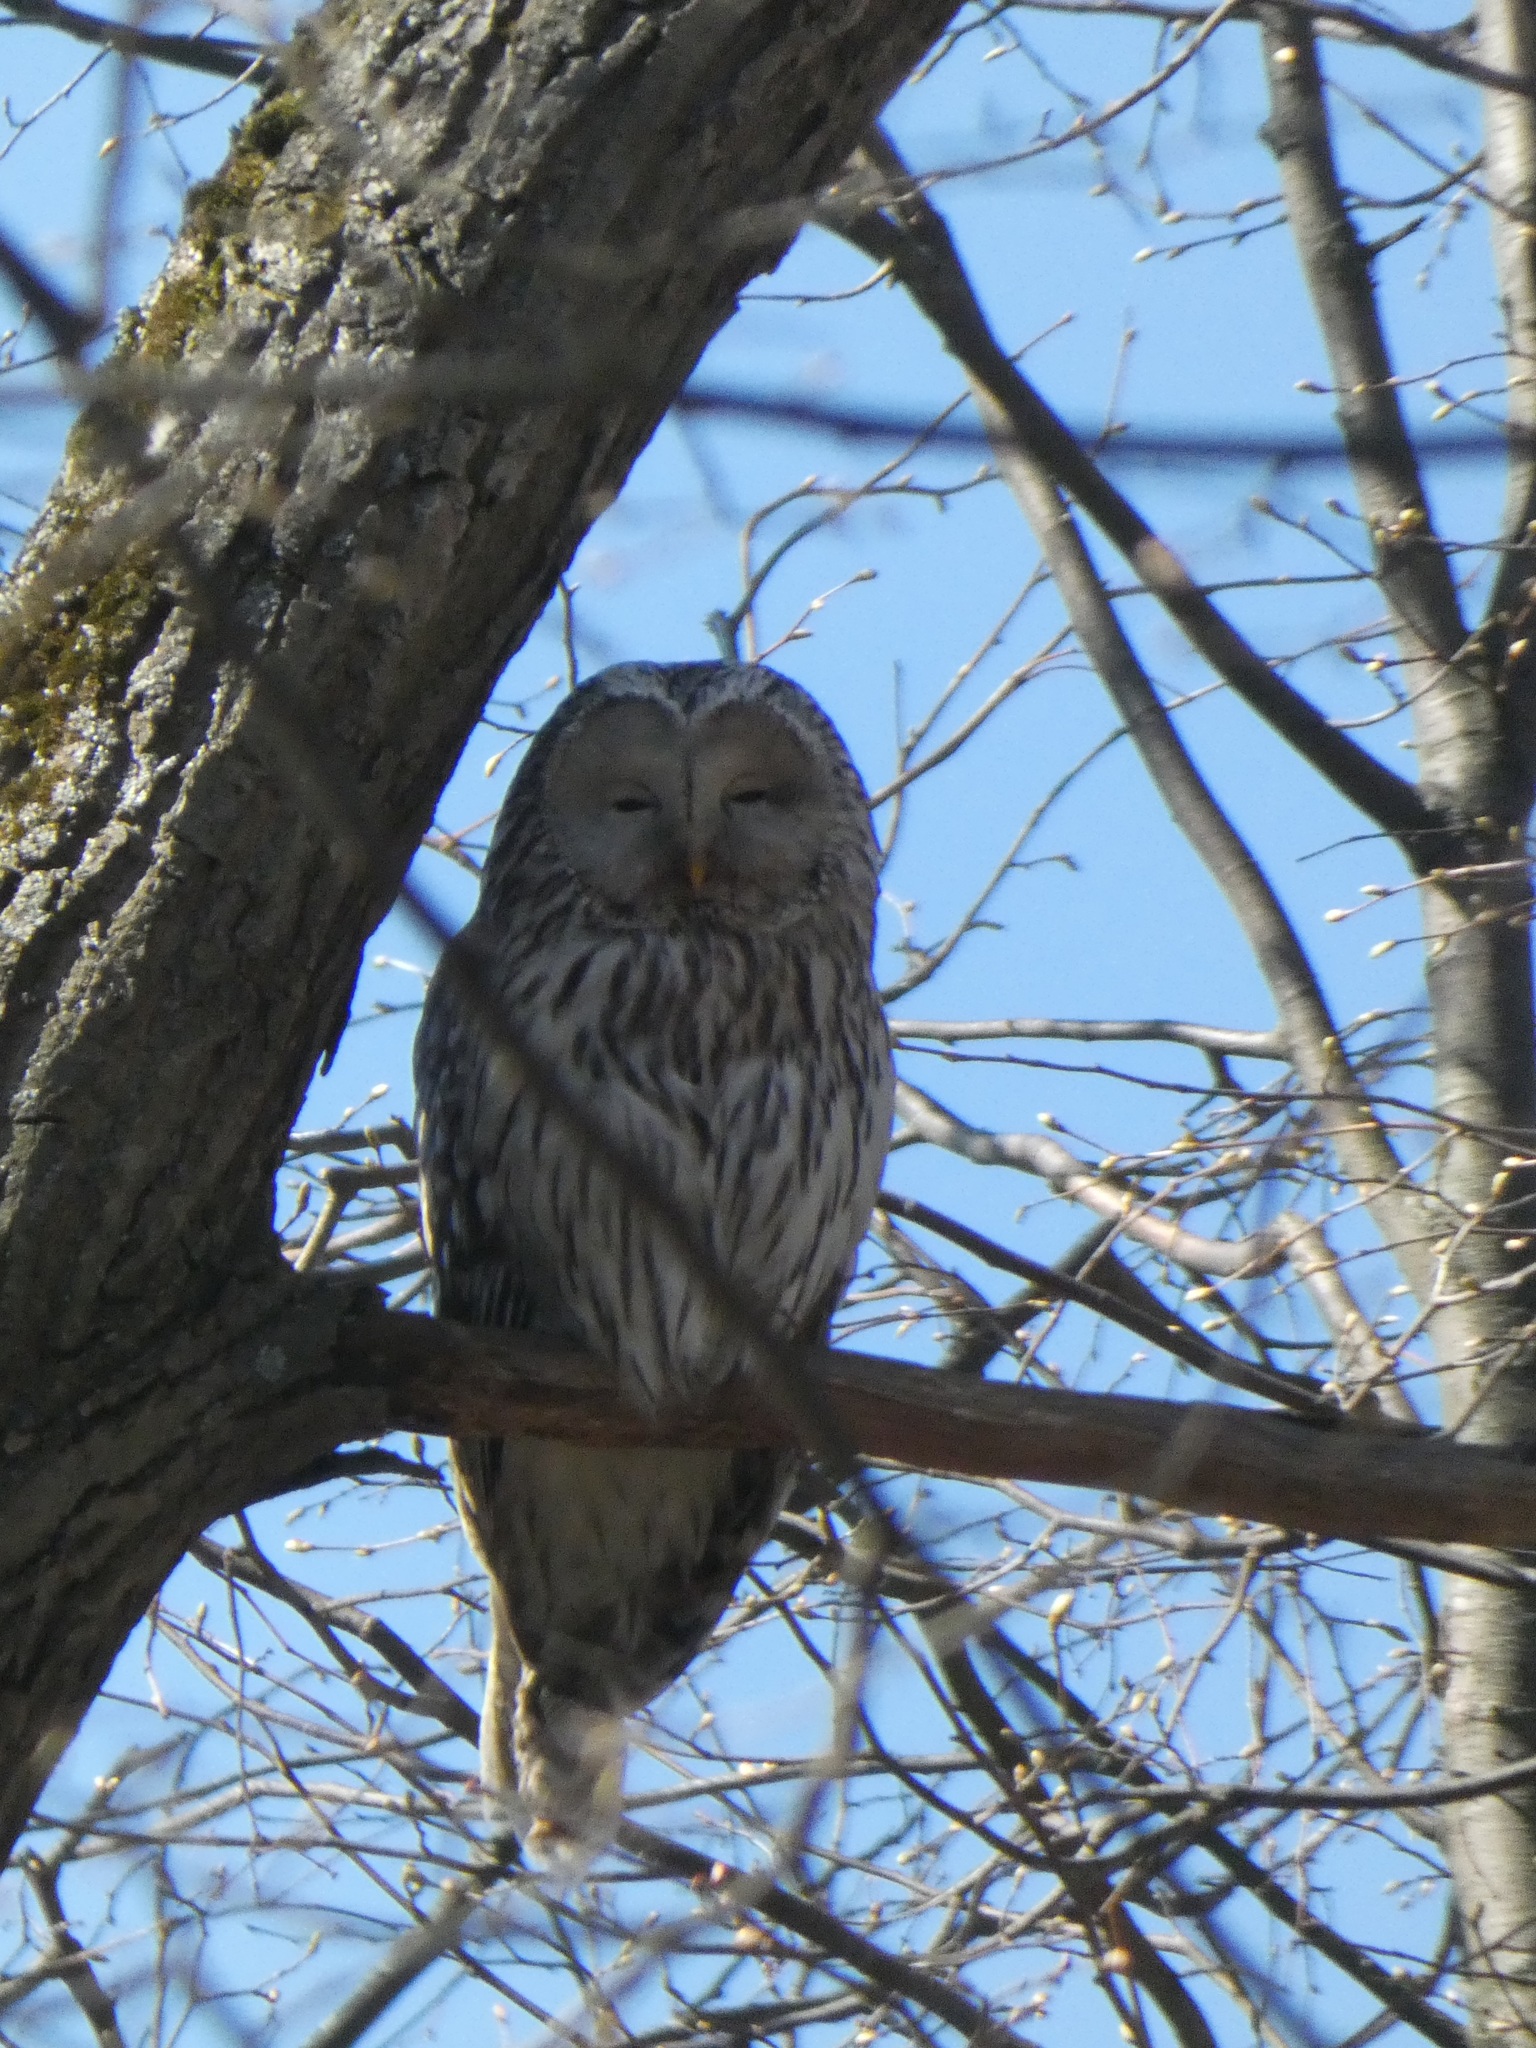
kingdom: Animalia
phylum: Chordata
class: Aves
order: Strigiformes
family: Strigidae
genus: Strix
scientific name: Strix uralensis
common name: Ural owl
